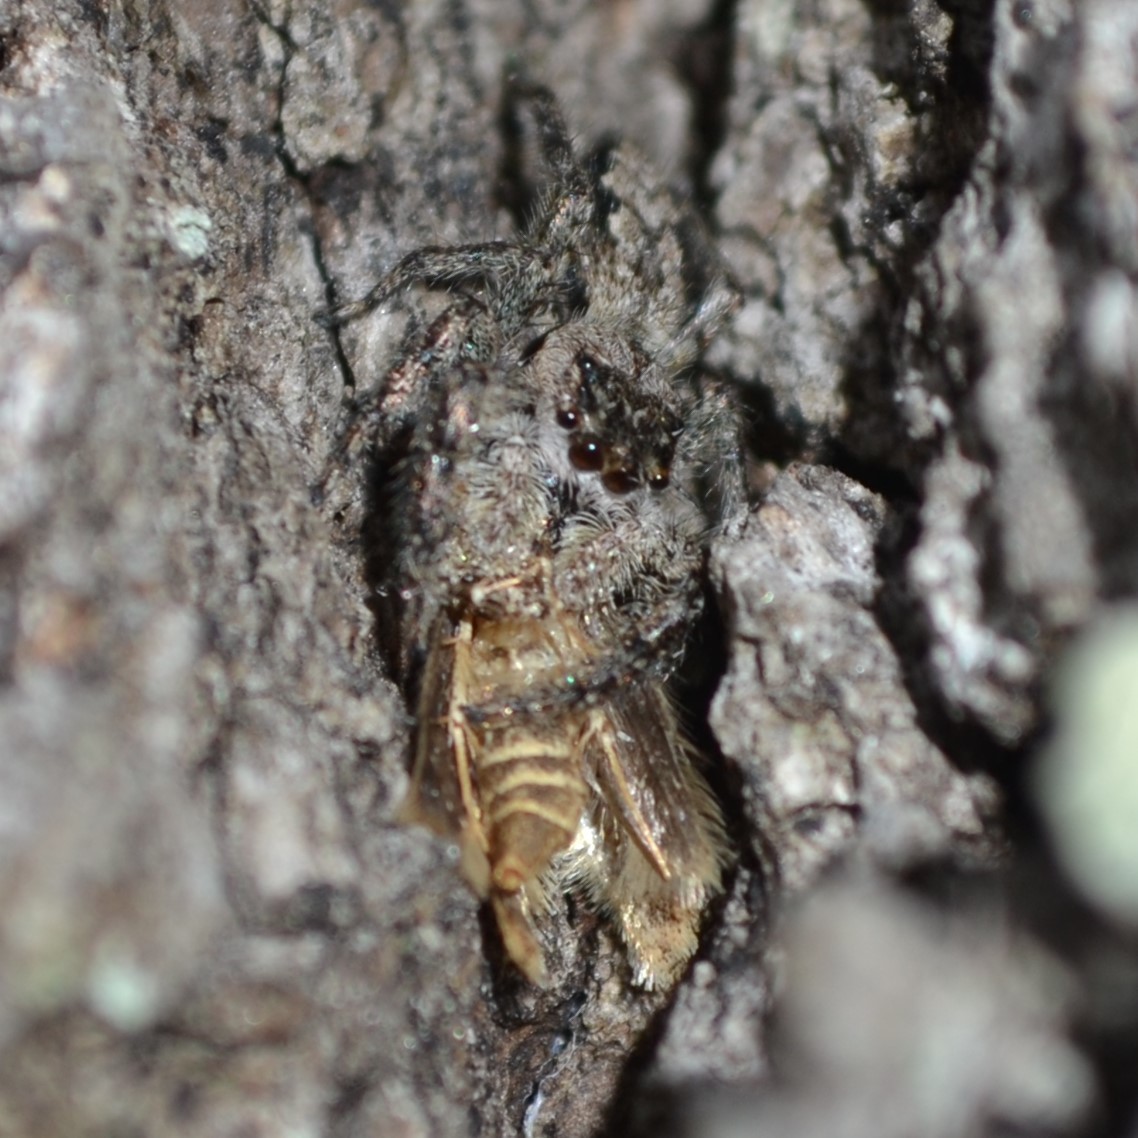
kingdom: Animalia
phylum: Arthropoda
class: Arachnida
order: Araneae
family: Salticidae
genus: Platycryptus
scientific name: Platycryptus undatus
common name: Tan jumping spider
